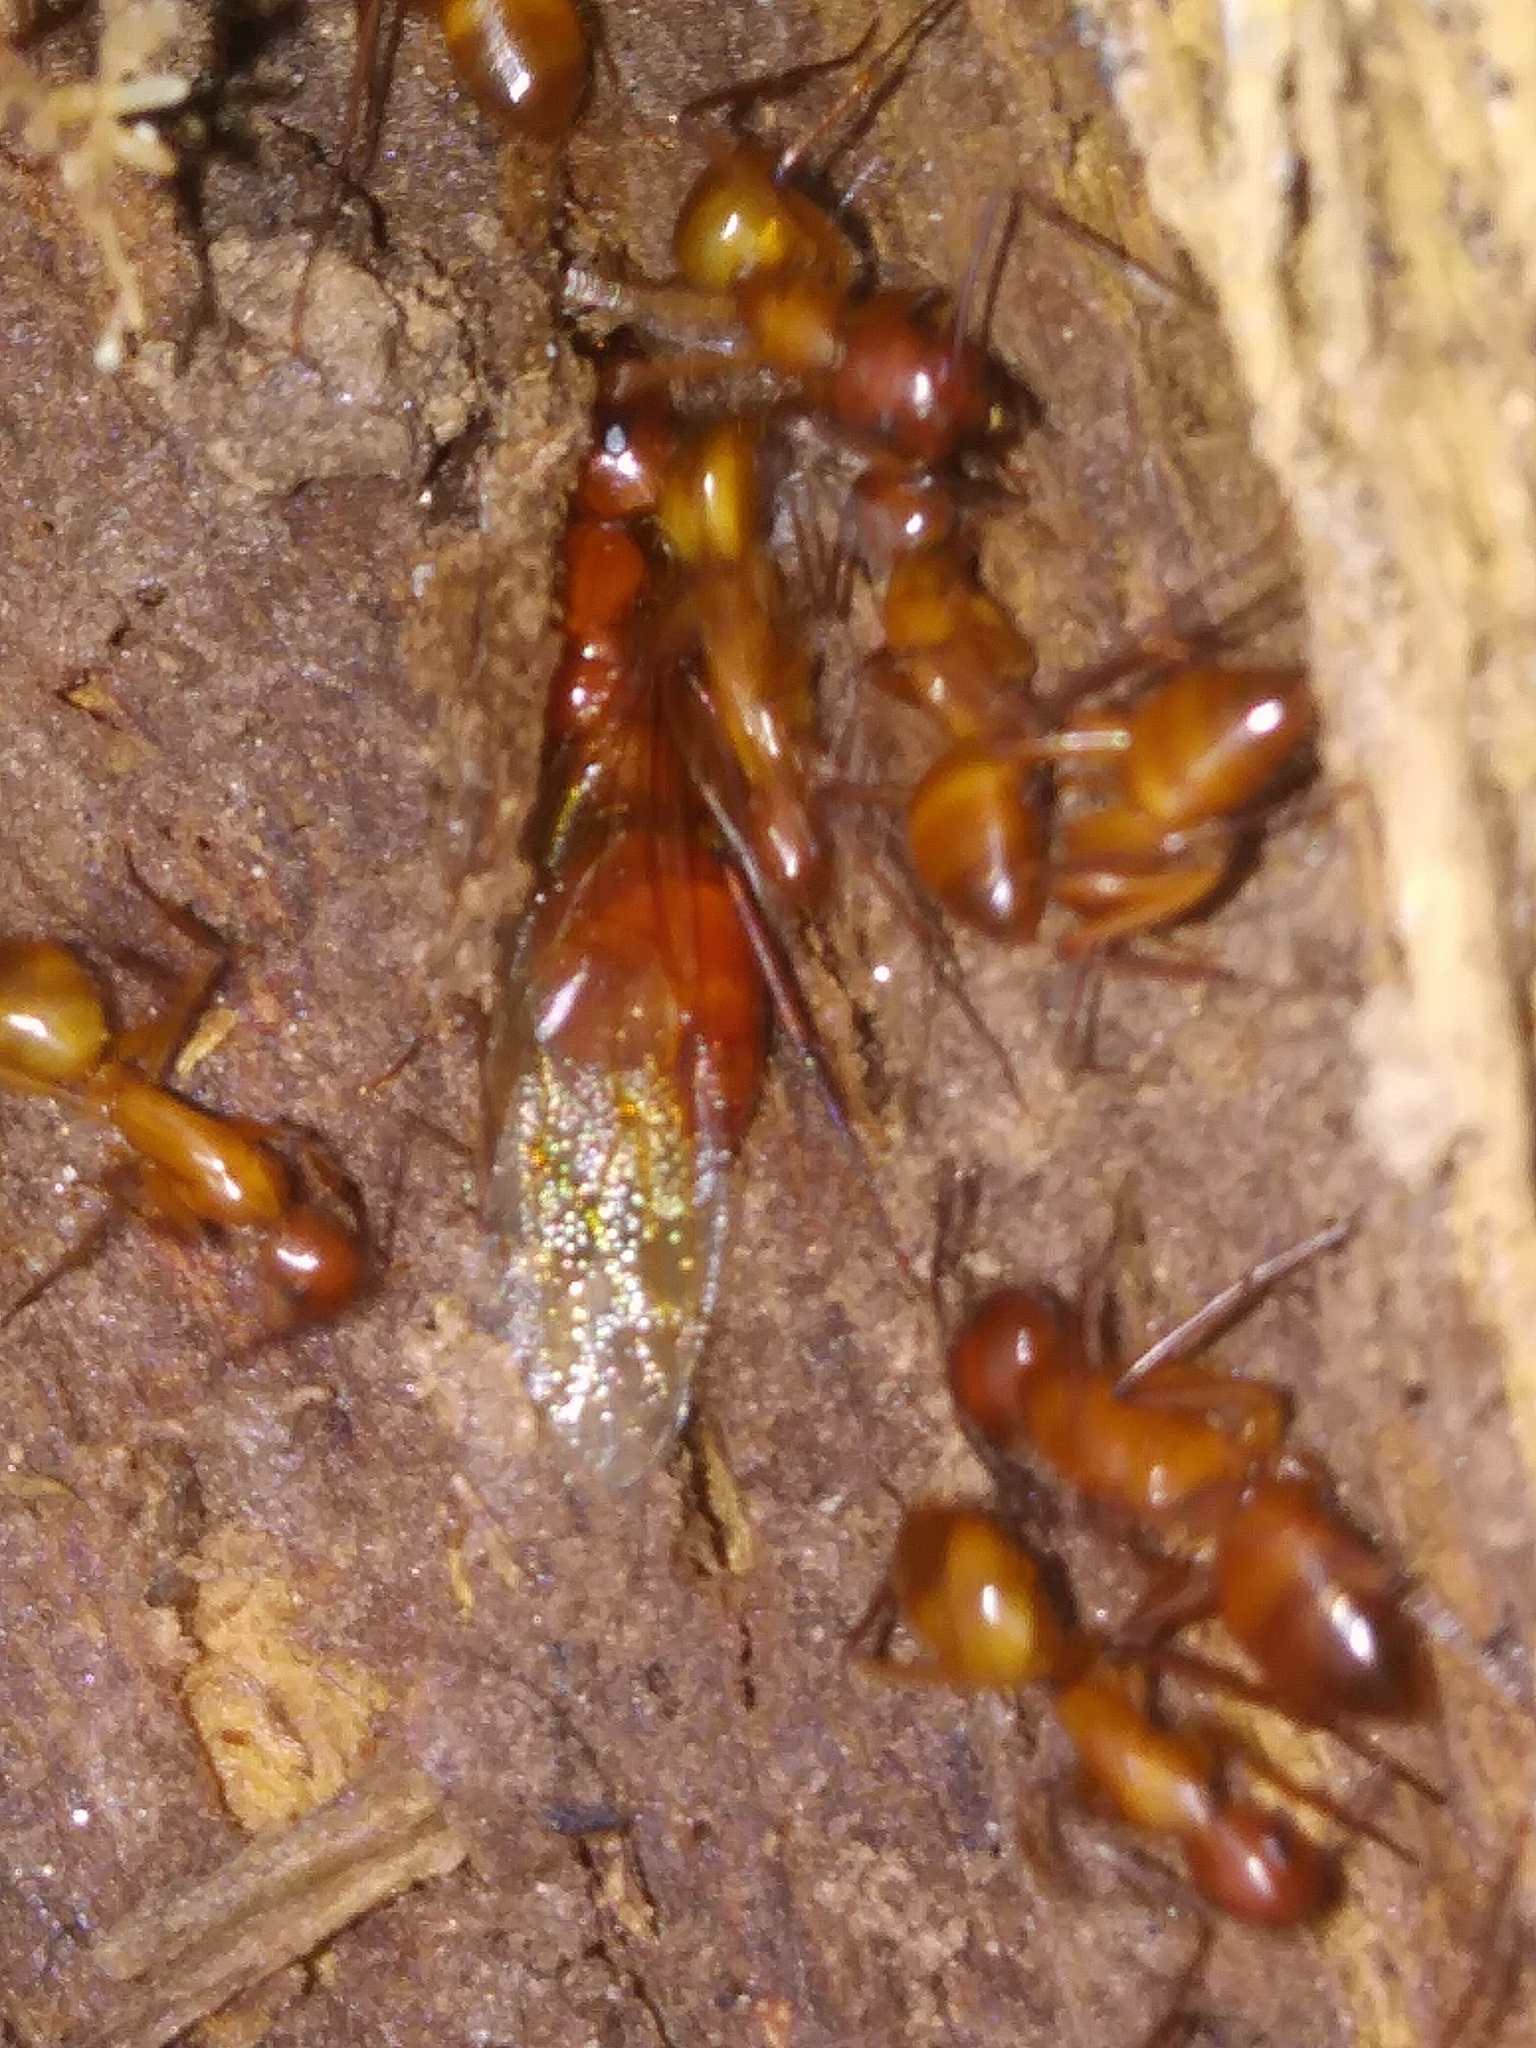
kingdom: Animalia
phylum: Arthropoda
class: Insecta
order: Hymenoptera
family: Formicidae
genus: Camponotus
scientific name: Camponotus castaneus
